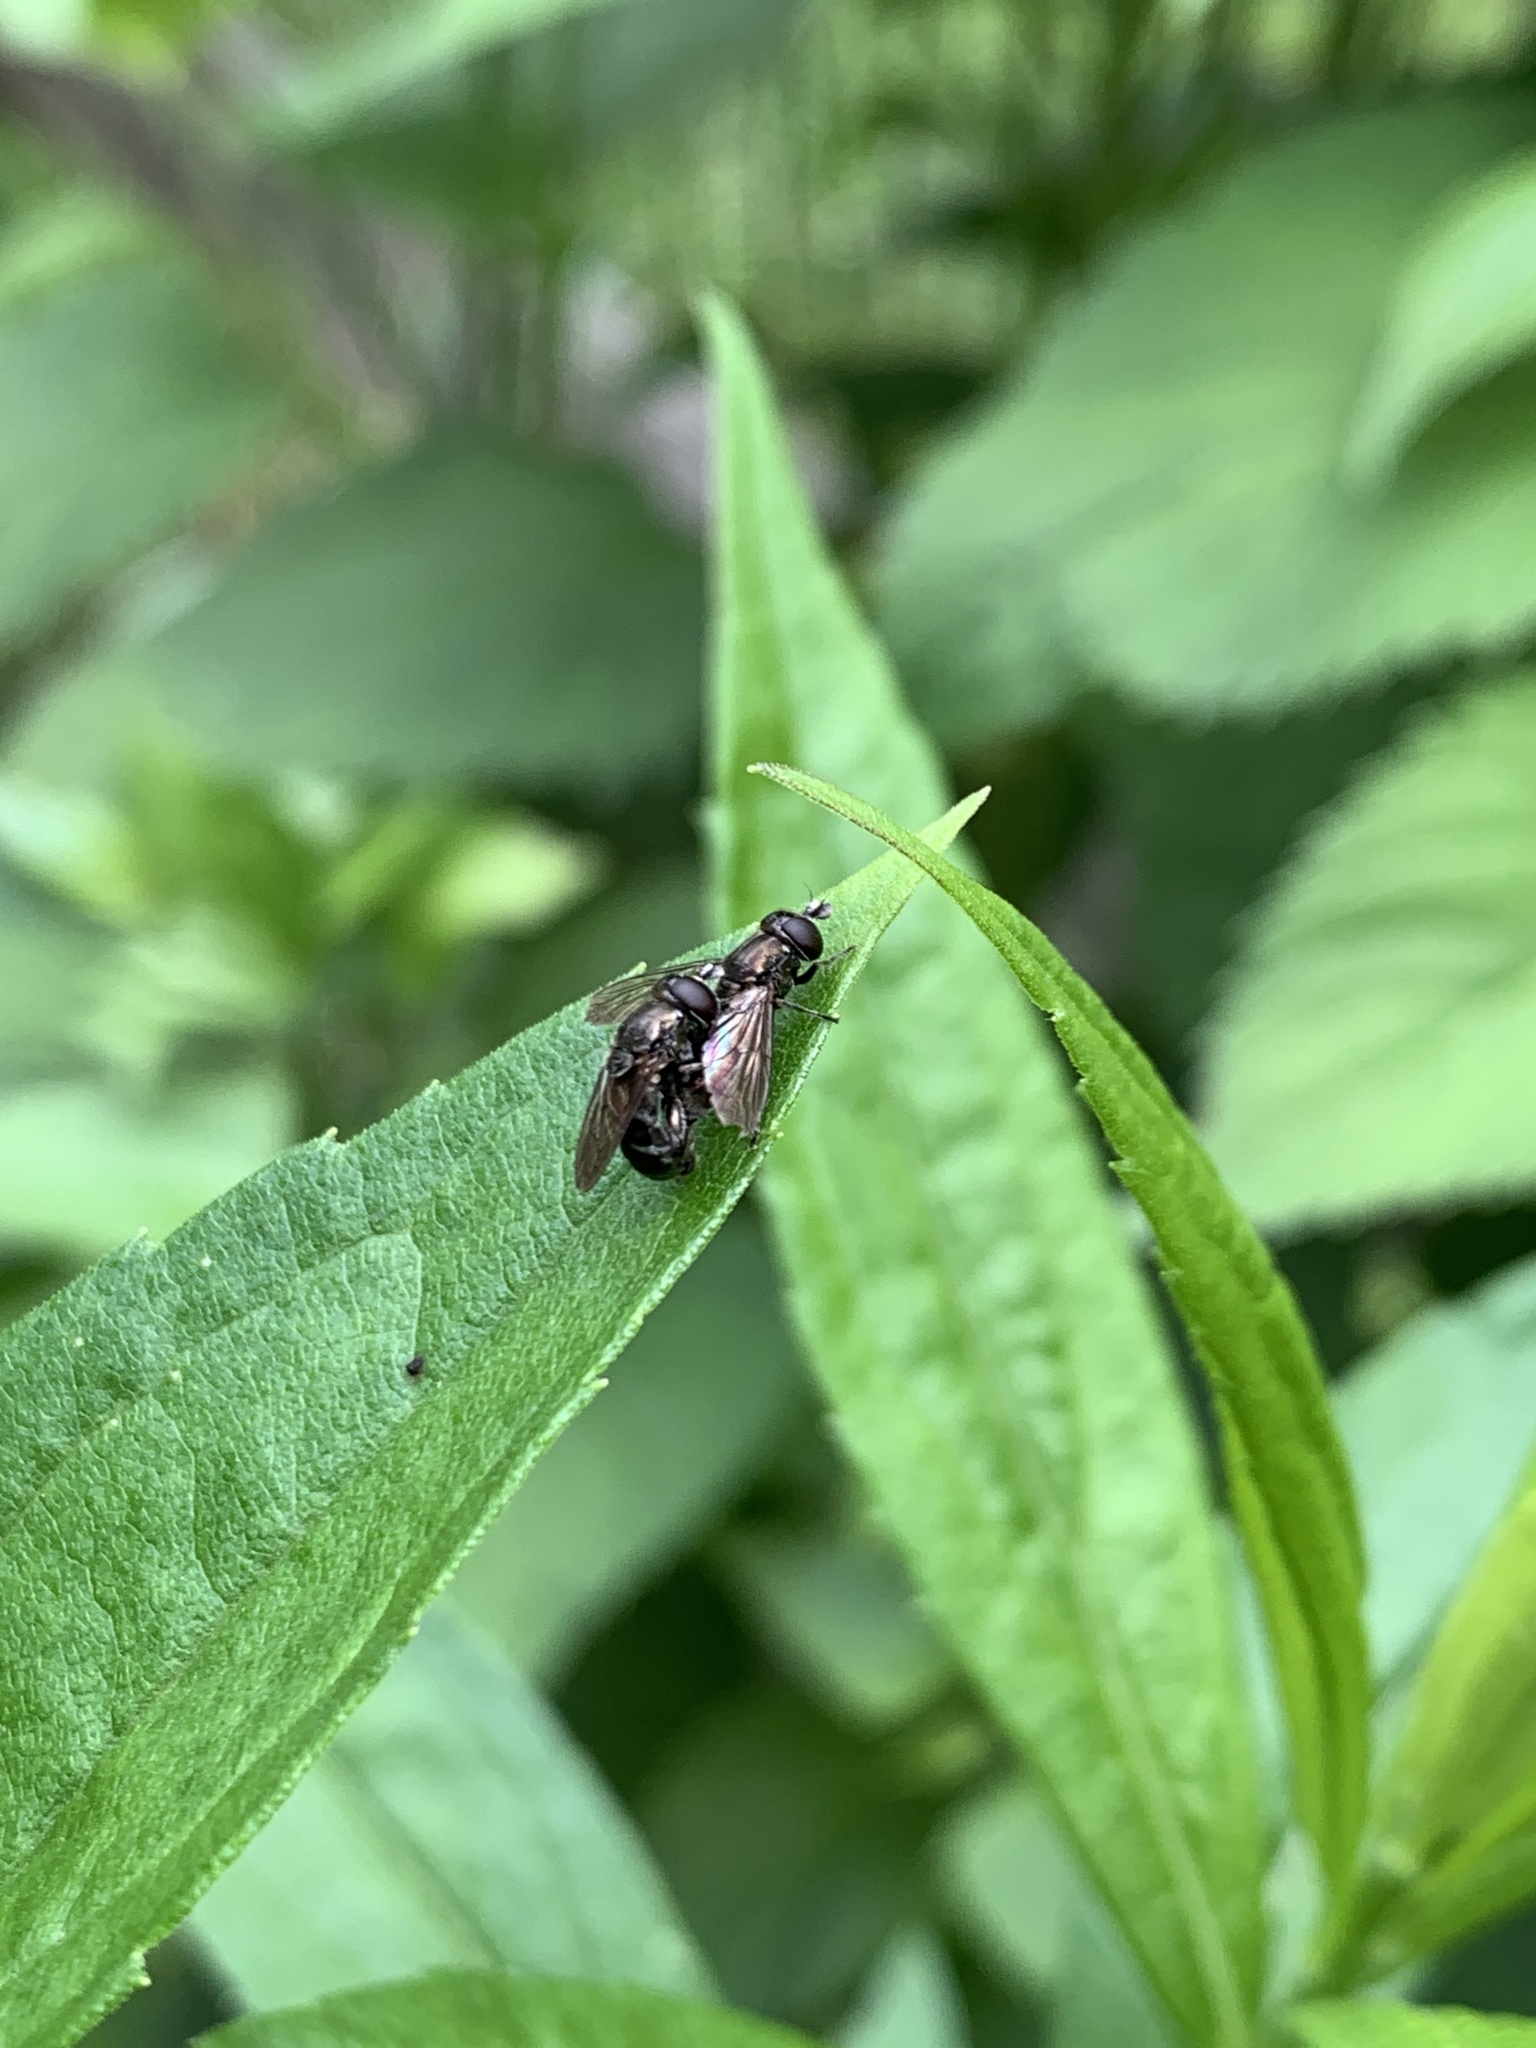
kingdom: Animalia
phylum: Arthropoda
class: Insecta
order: Diptera
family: Syrphidae
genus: Eumerus
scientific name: Eumerus
